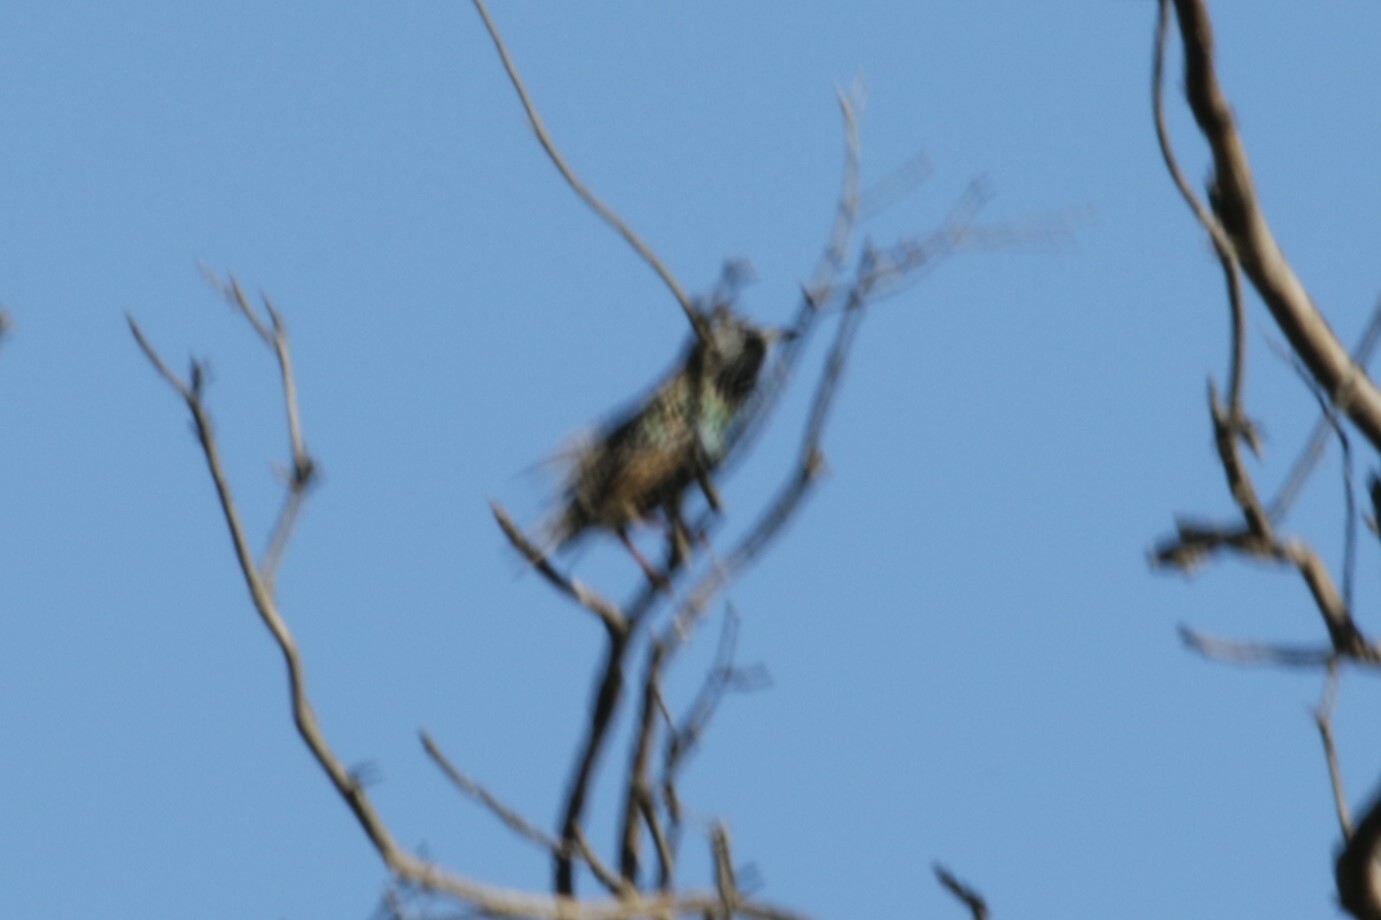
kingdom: Animalia
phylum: Chordata
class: Aves
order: Passeriformes
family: Sturnidae
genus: Sturnus
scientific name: Sturnus vulgaris
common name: Common starling
